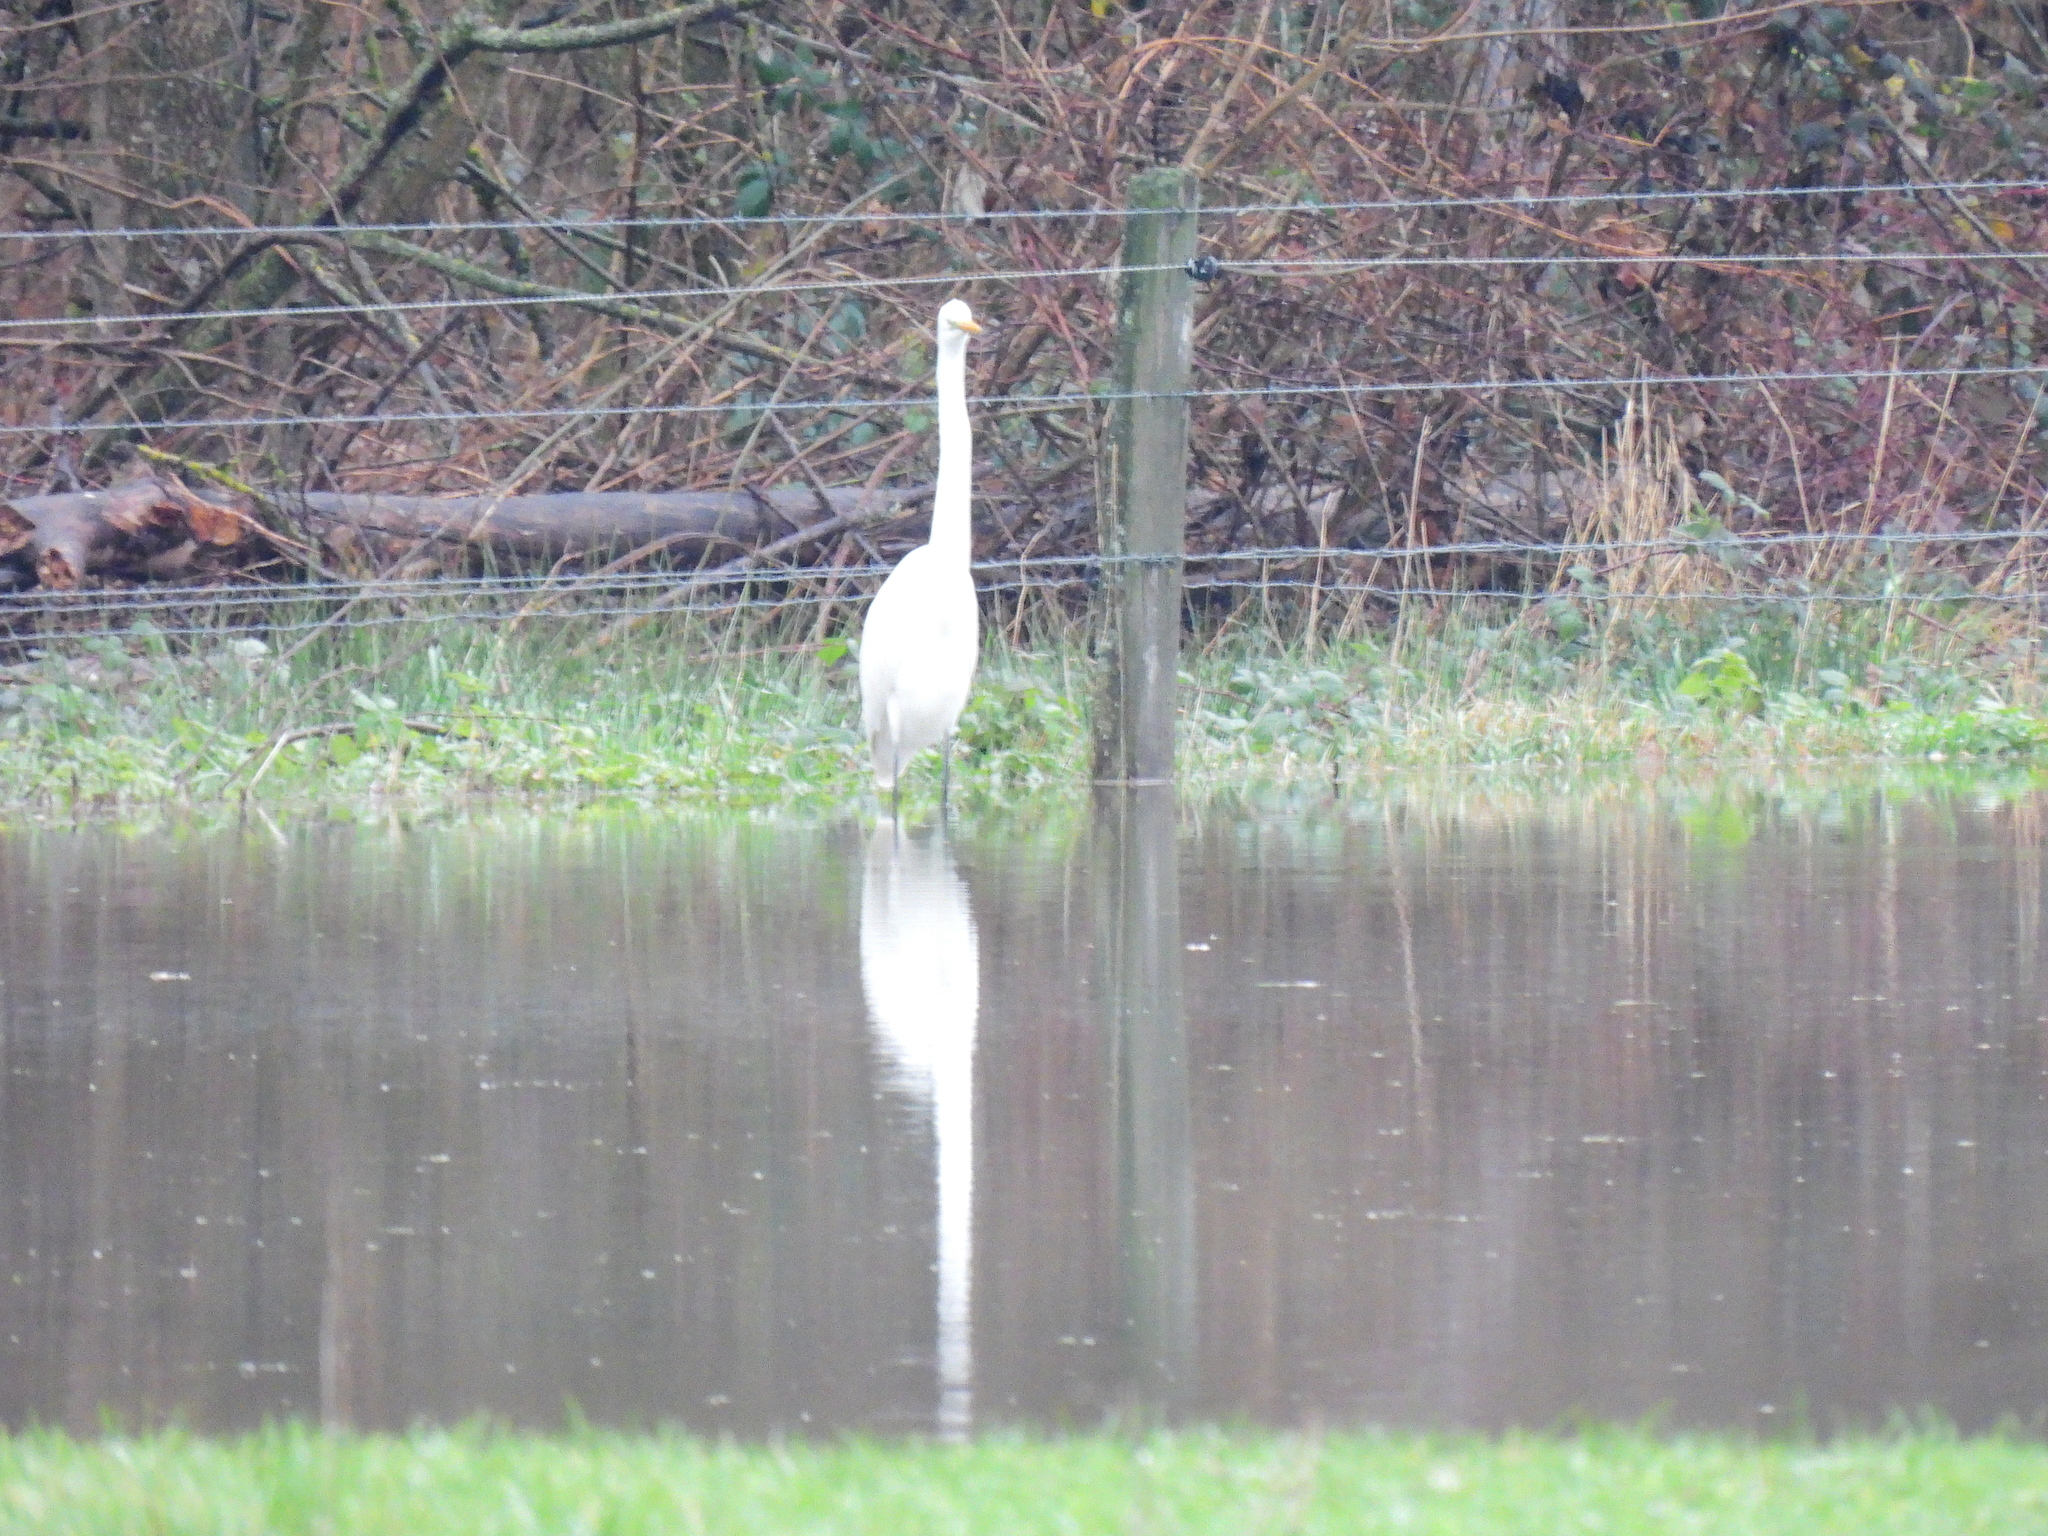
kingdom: Animalia
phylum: Chordata
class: Aves
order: Pelecaniformes
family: Ardeidae
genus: Ardea
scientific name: Ardea alba
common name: Great egret
